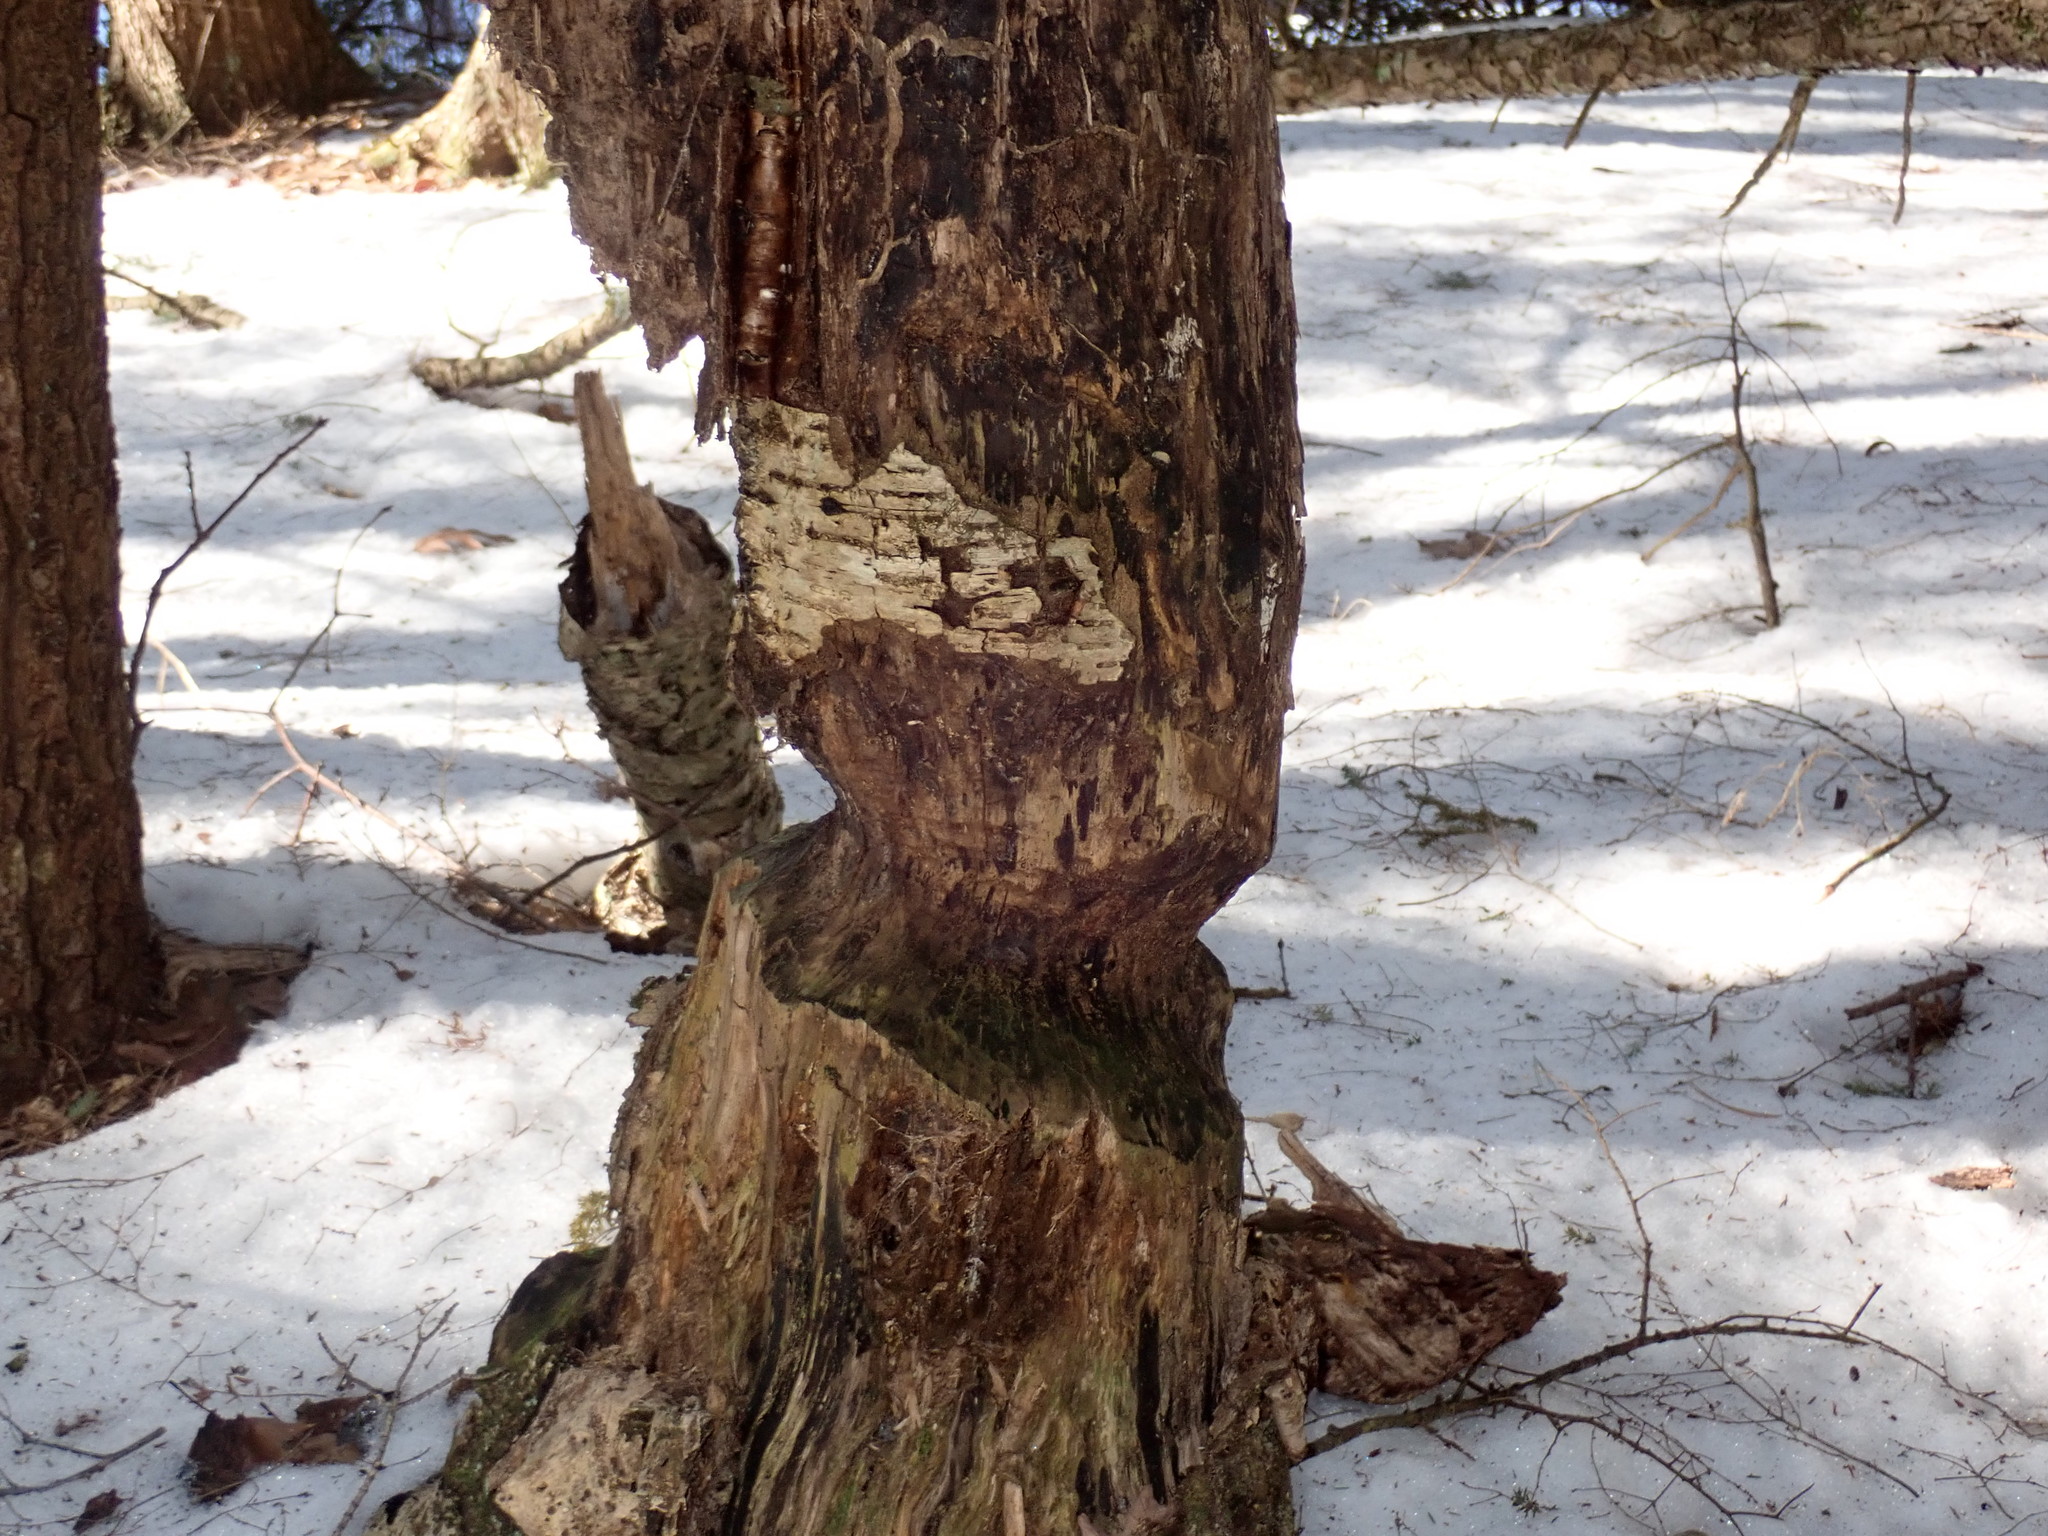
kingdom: Animalia
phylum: Chordata
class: Mammalia
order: Rodentia
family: Castoridae
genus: Castor
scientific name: Castor canadensis
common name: American beaver
